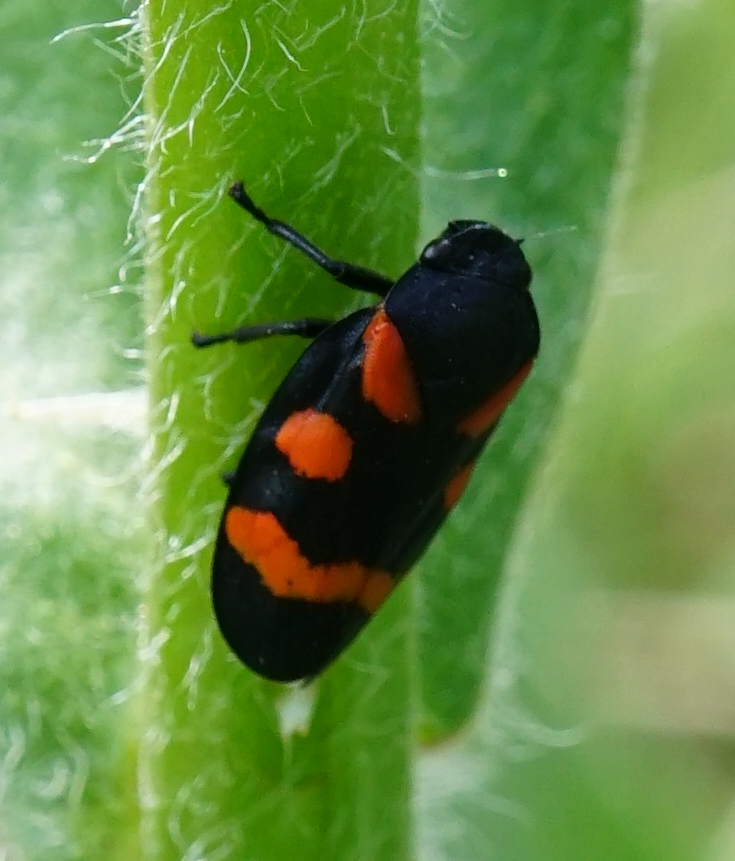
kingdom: Animalia
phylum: Arthropoda
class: Insecta
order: Hemiptera
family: Cercopidae
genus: Cercopis
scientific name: Cercopis sanguinolenta
